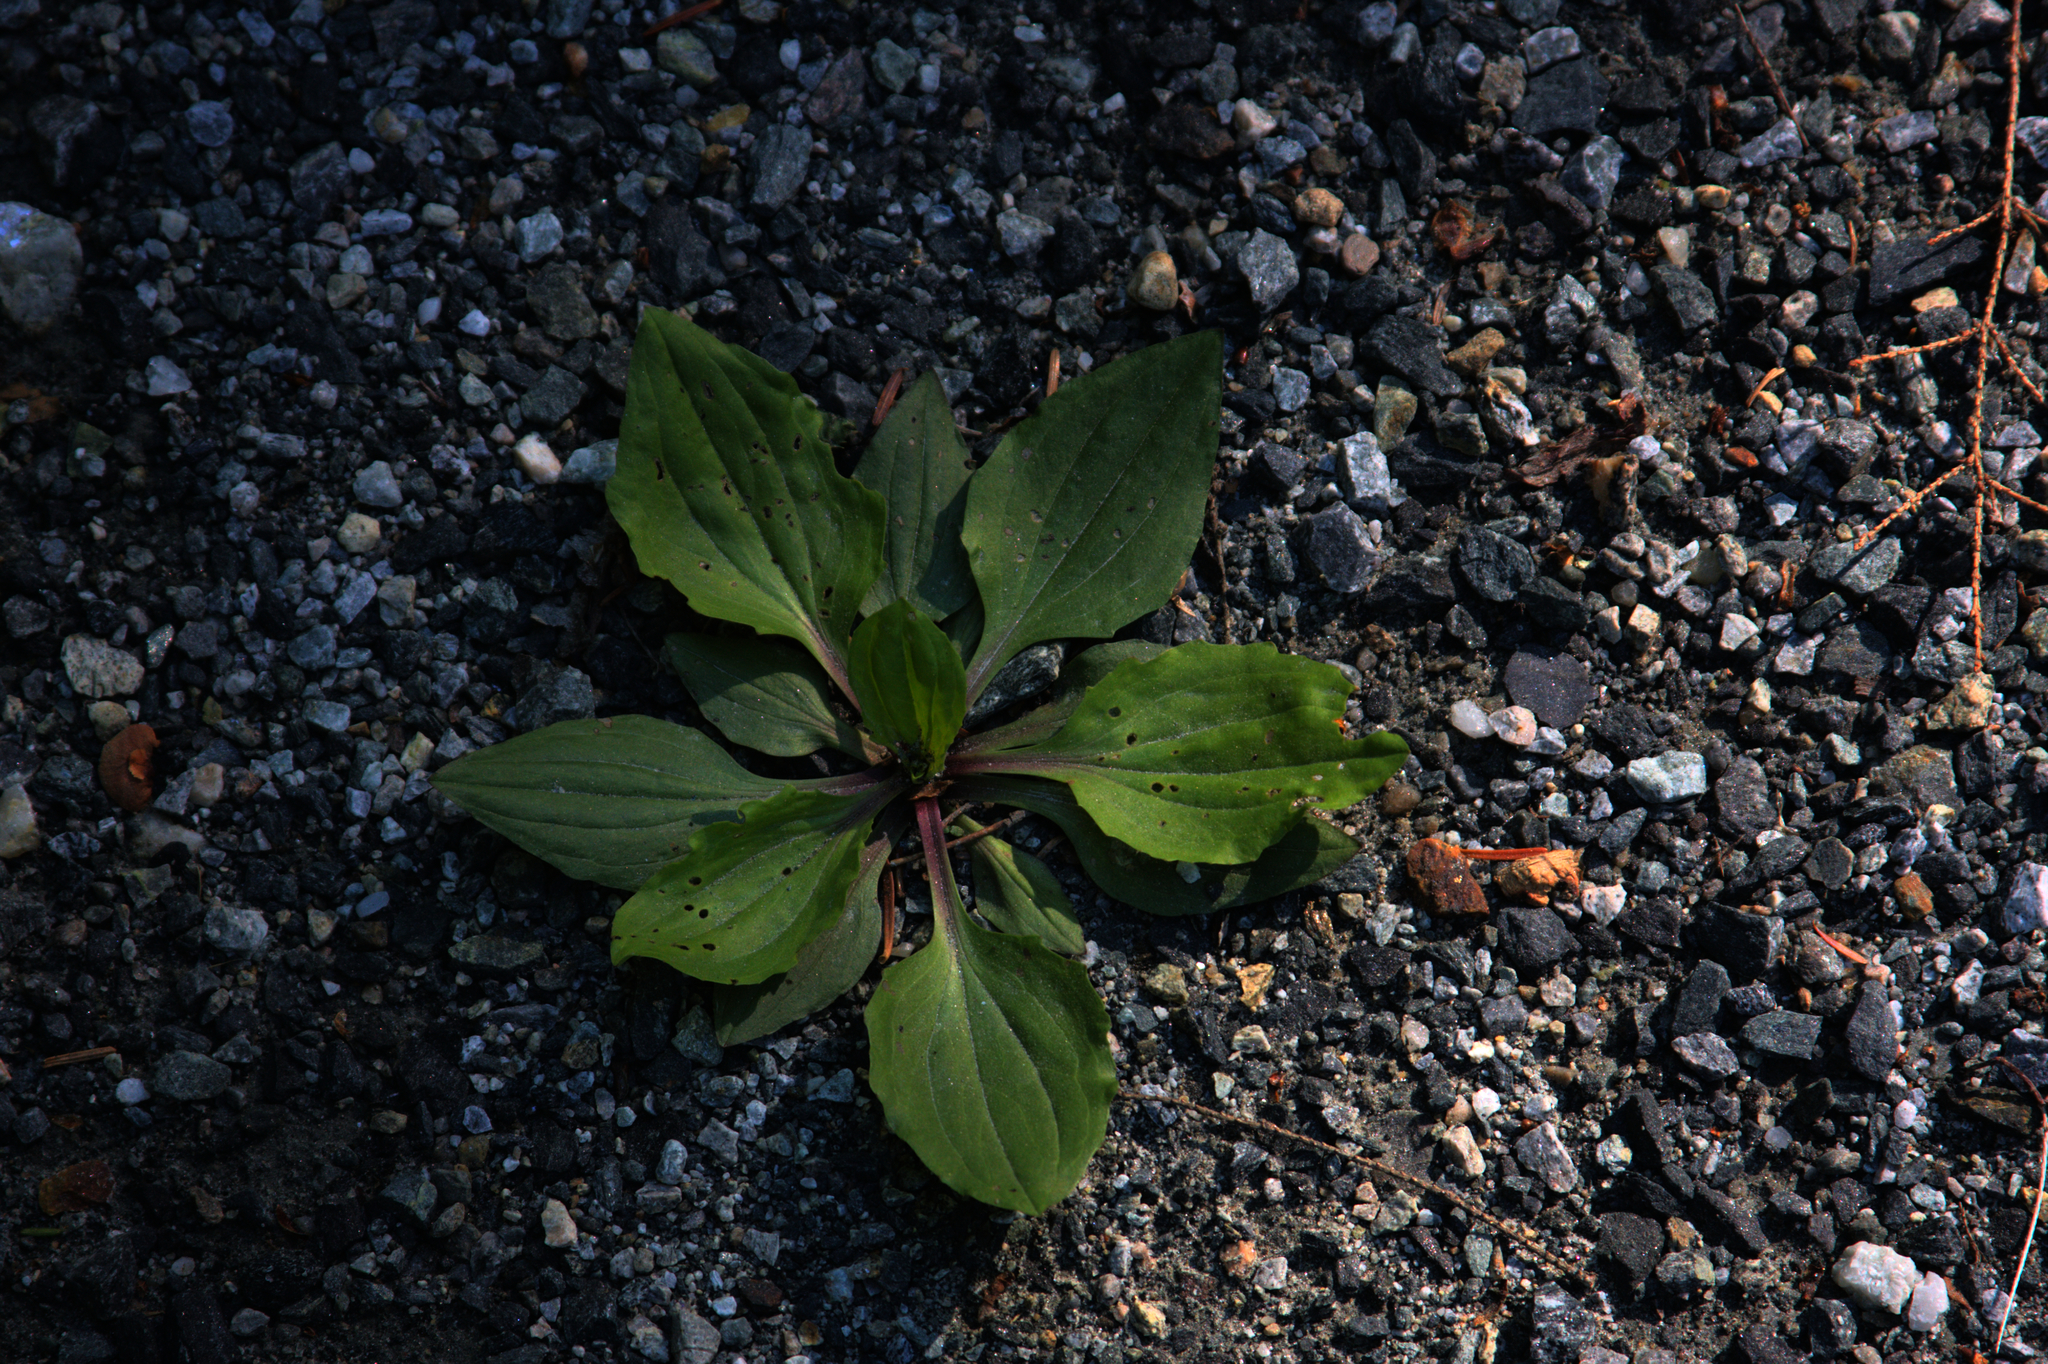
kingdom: Plantae
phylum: Tracheophyta
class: Magnoliopsida
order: Lamiales
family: Plantaginaceae
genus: Plantago
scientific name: Plantago rugelii
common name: American plantain
